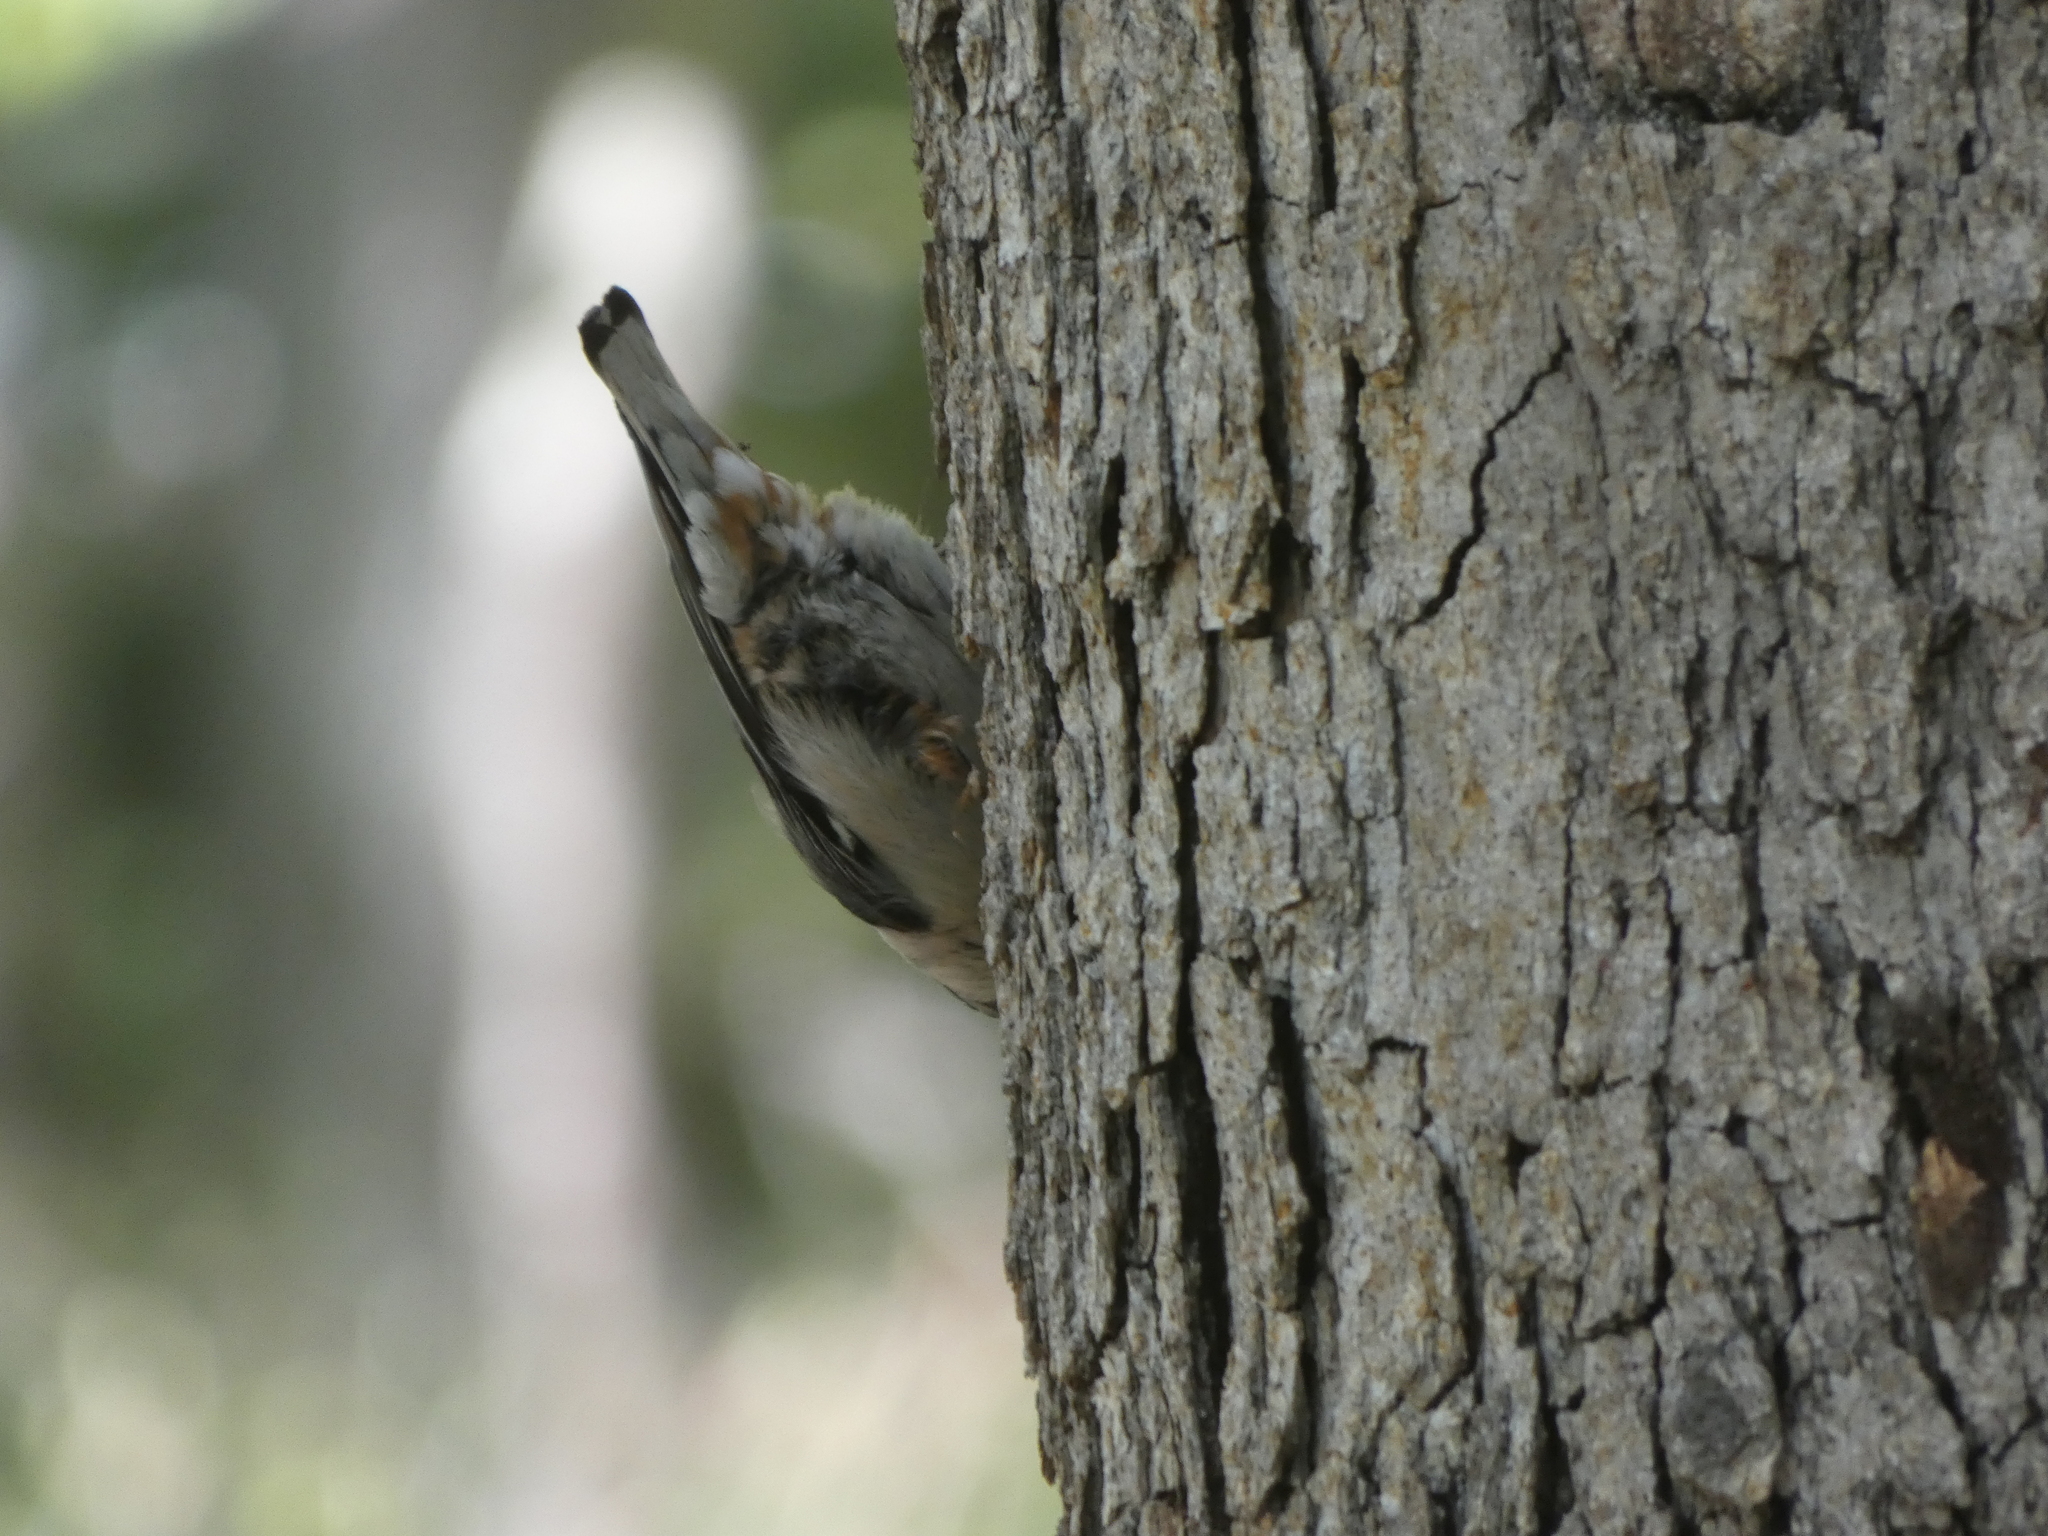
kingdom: Animalia
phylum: Chordata
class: Aves
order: Passeriformes
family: Sittidae
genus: Sitta
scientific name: Sitta carolinensis
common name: White-breasted nuthatch
